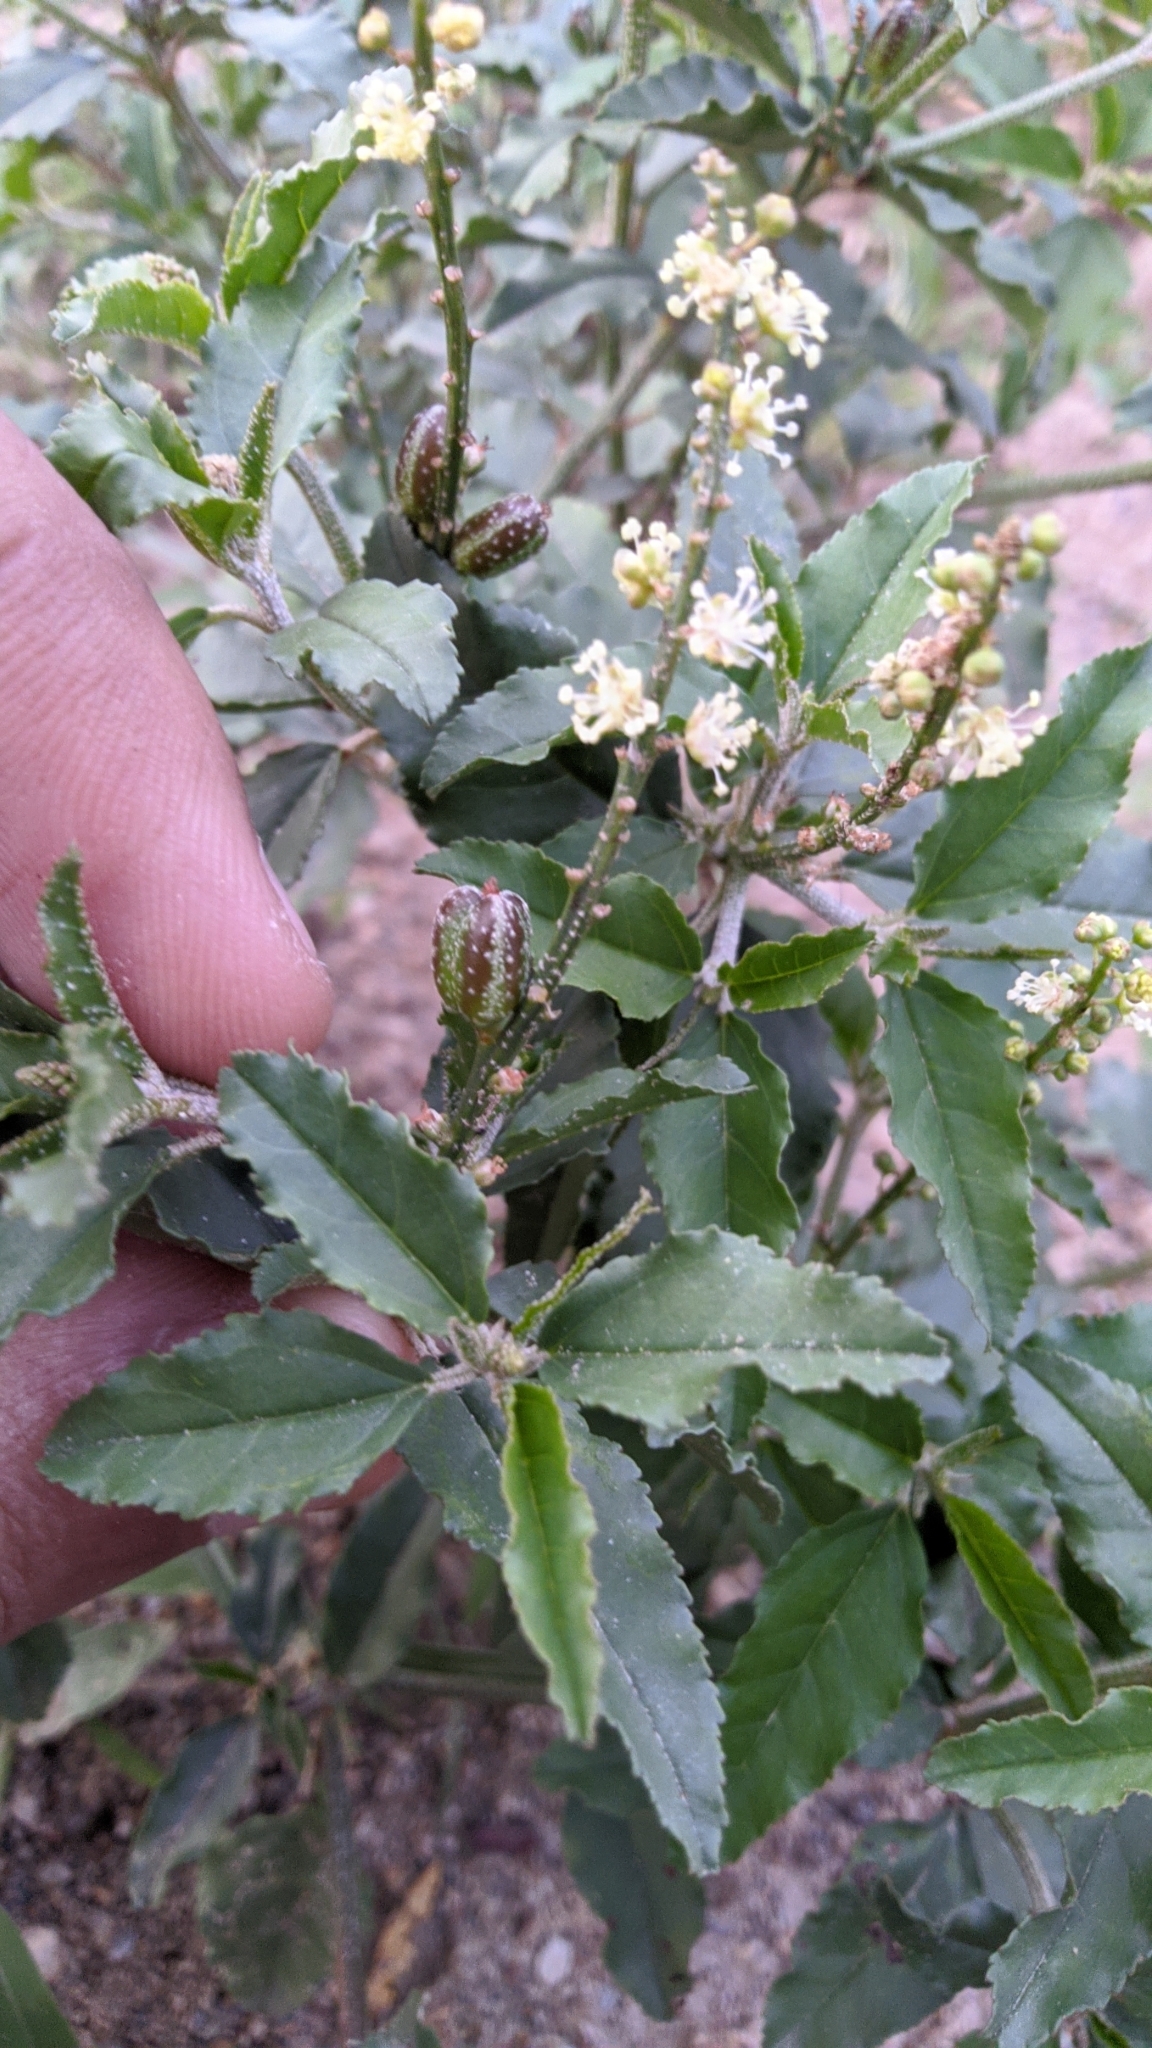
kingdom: Plantae
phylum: Tracheophyta
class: Magnoliopsida
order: Malpighiales
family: Euphorbiaceae
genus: Croton
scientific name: Croton bonplandianus
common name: Bonpland's croton
